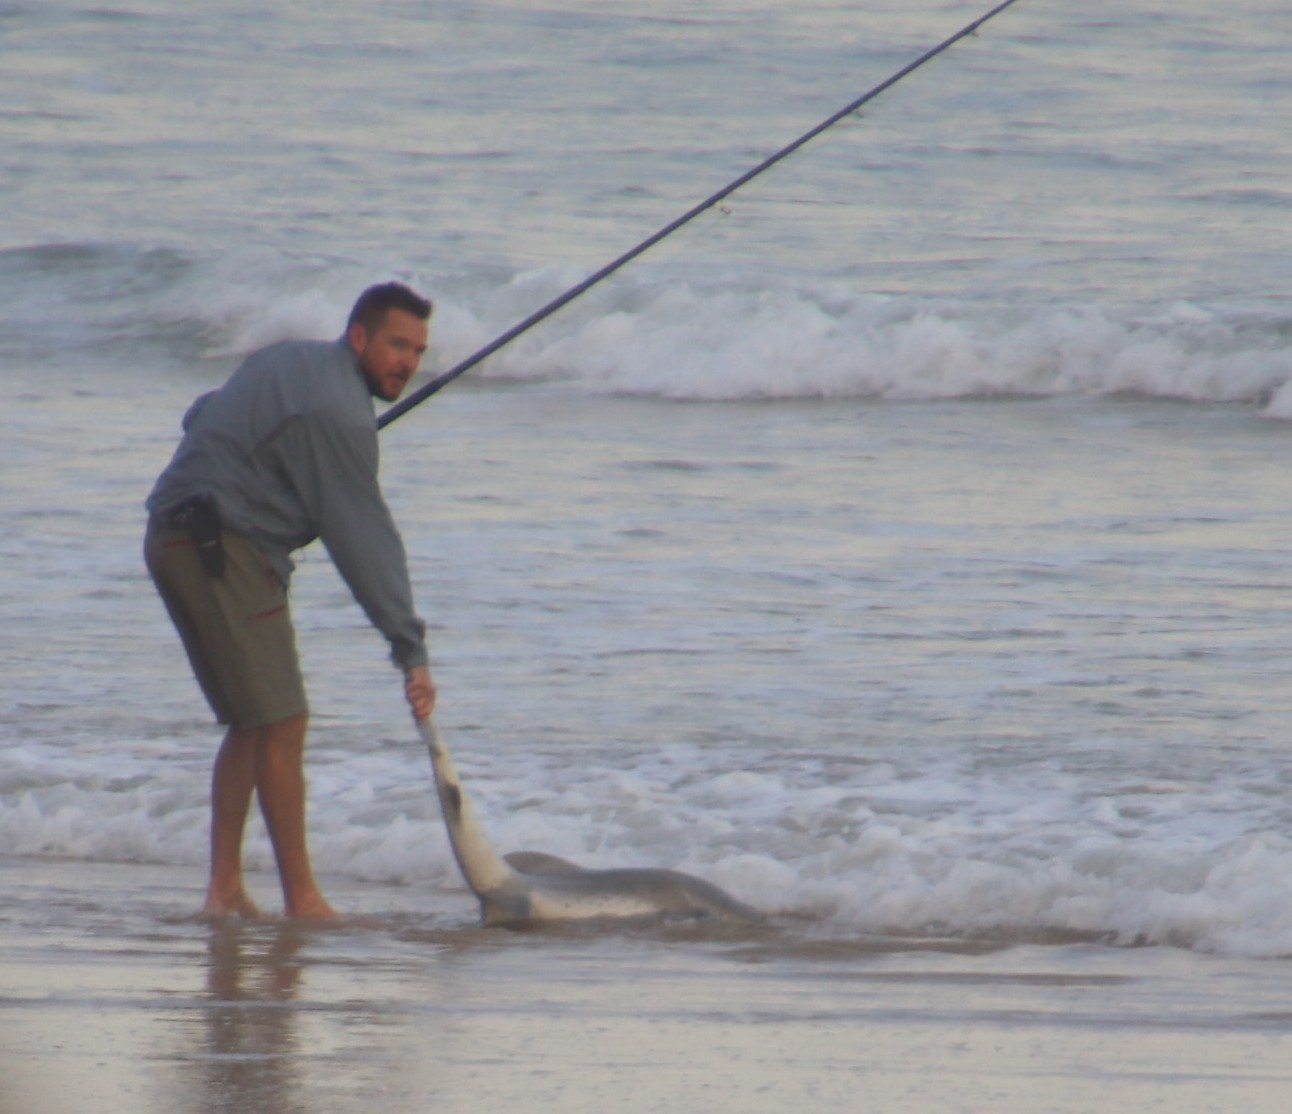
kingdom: Animalia
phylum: Chordata
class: Elasmobranchii
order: Carcharhiniformes
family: Triakidae
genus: Triakis
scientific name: Triakis megalopterus
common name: Spotted gully shark
